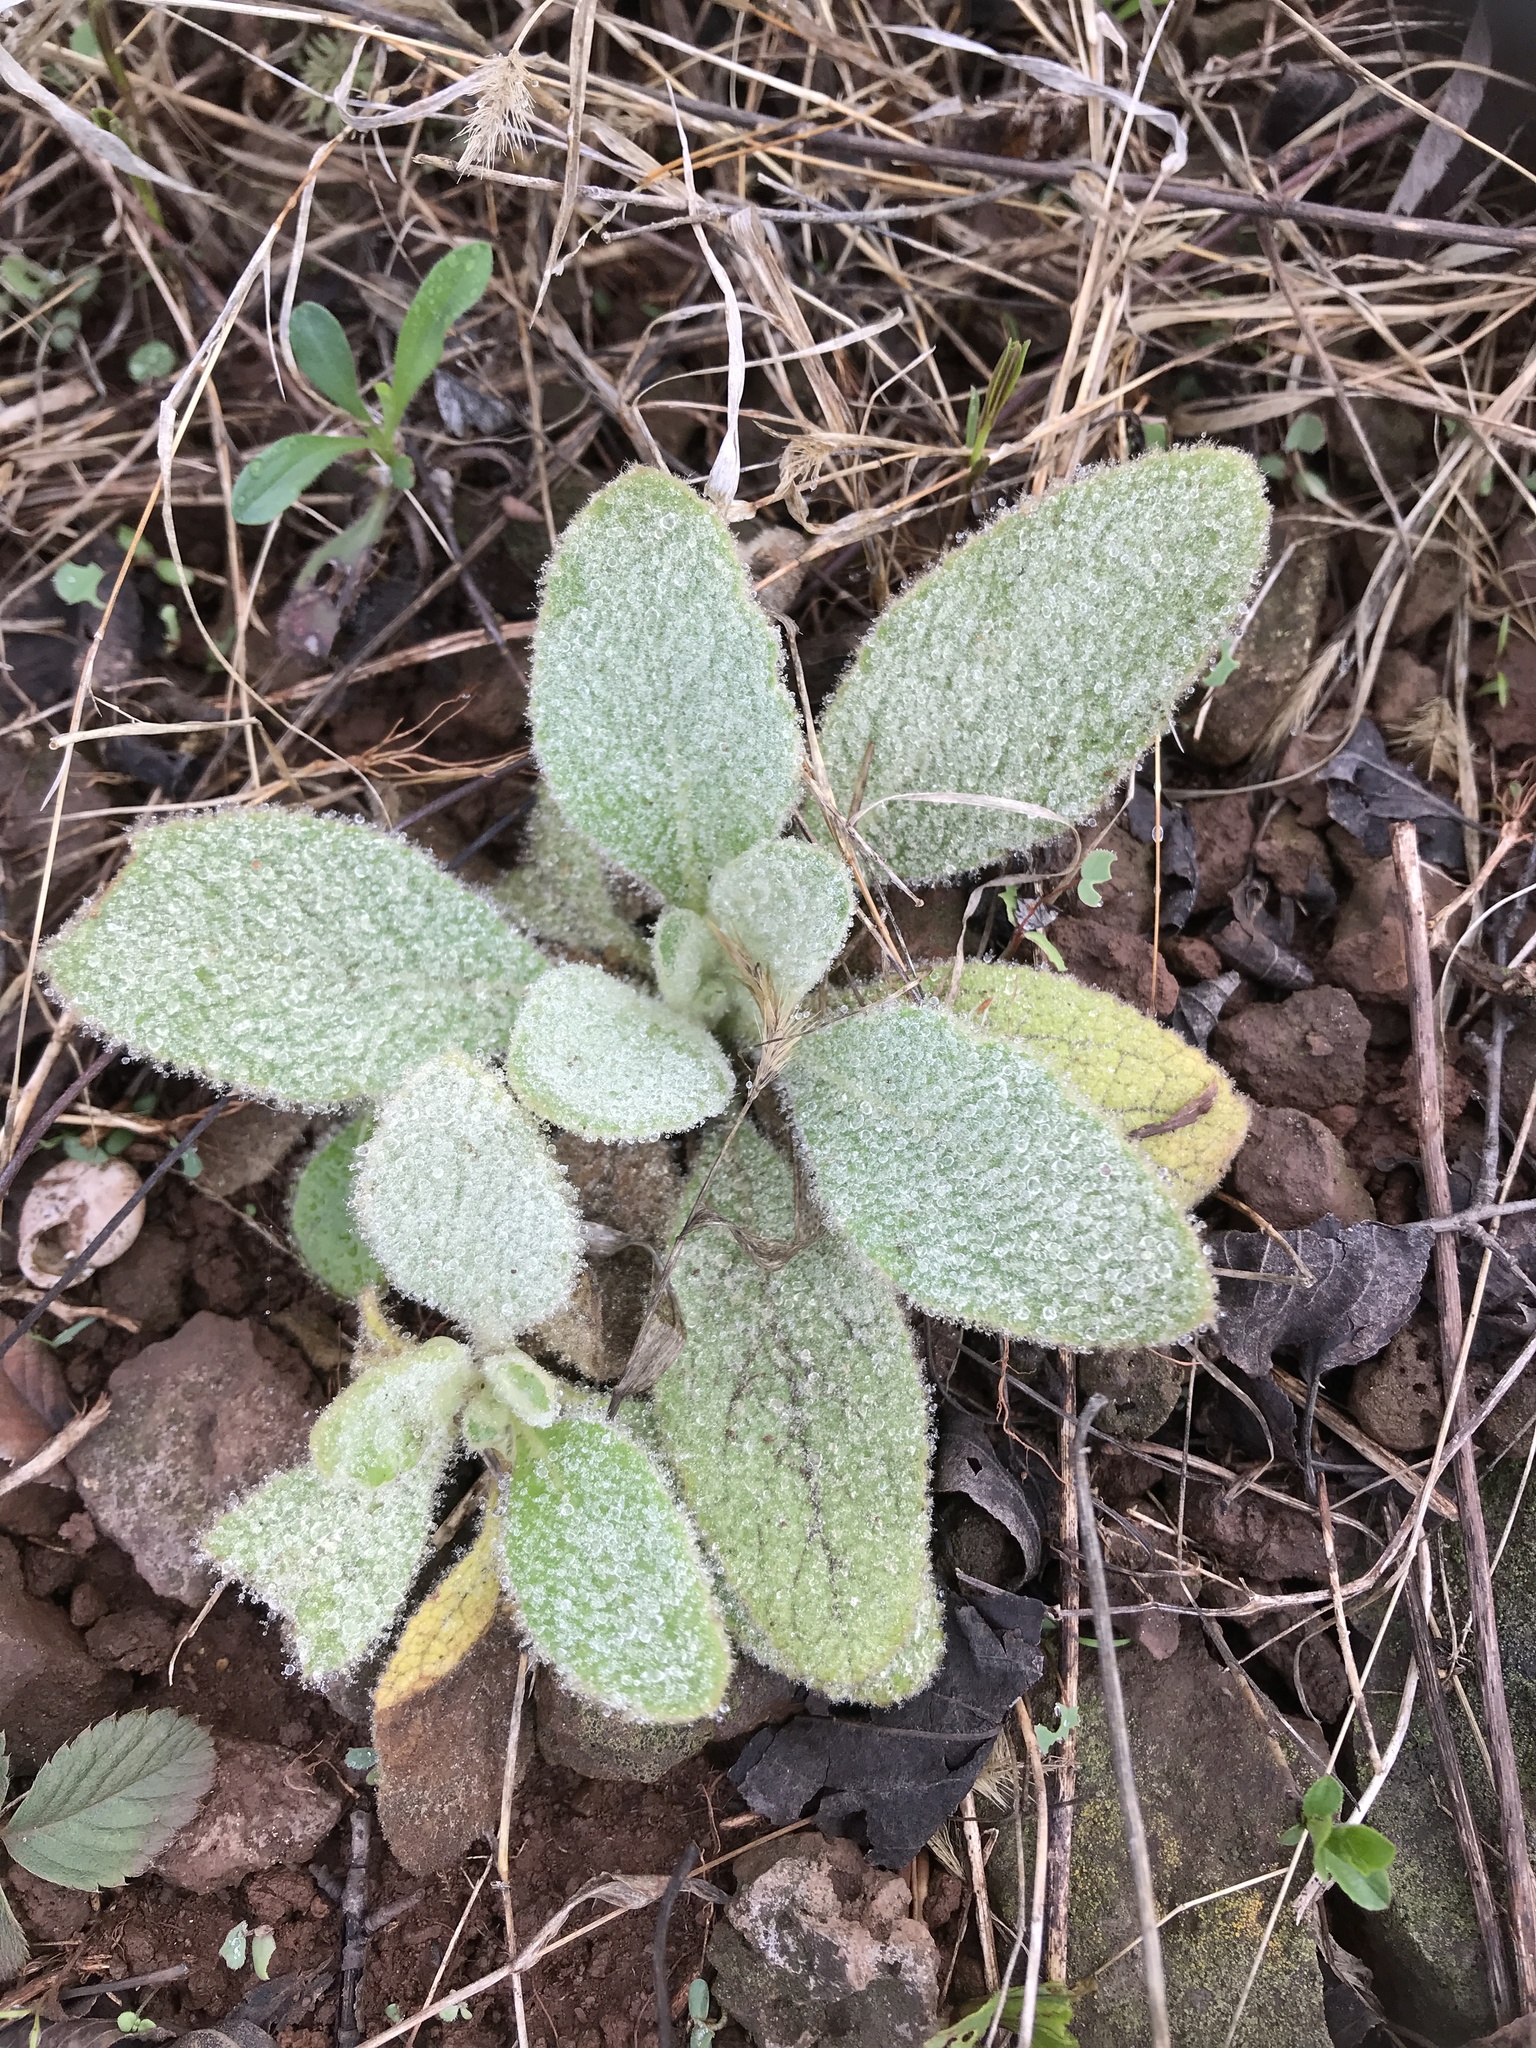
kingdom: Plantae
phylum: Tracheophyta
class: Magnoliopsida
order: Lamiales
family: Scrophulariaceae
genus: Verbascum
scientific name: Verbascum thapsus
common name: Common mullein
